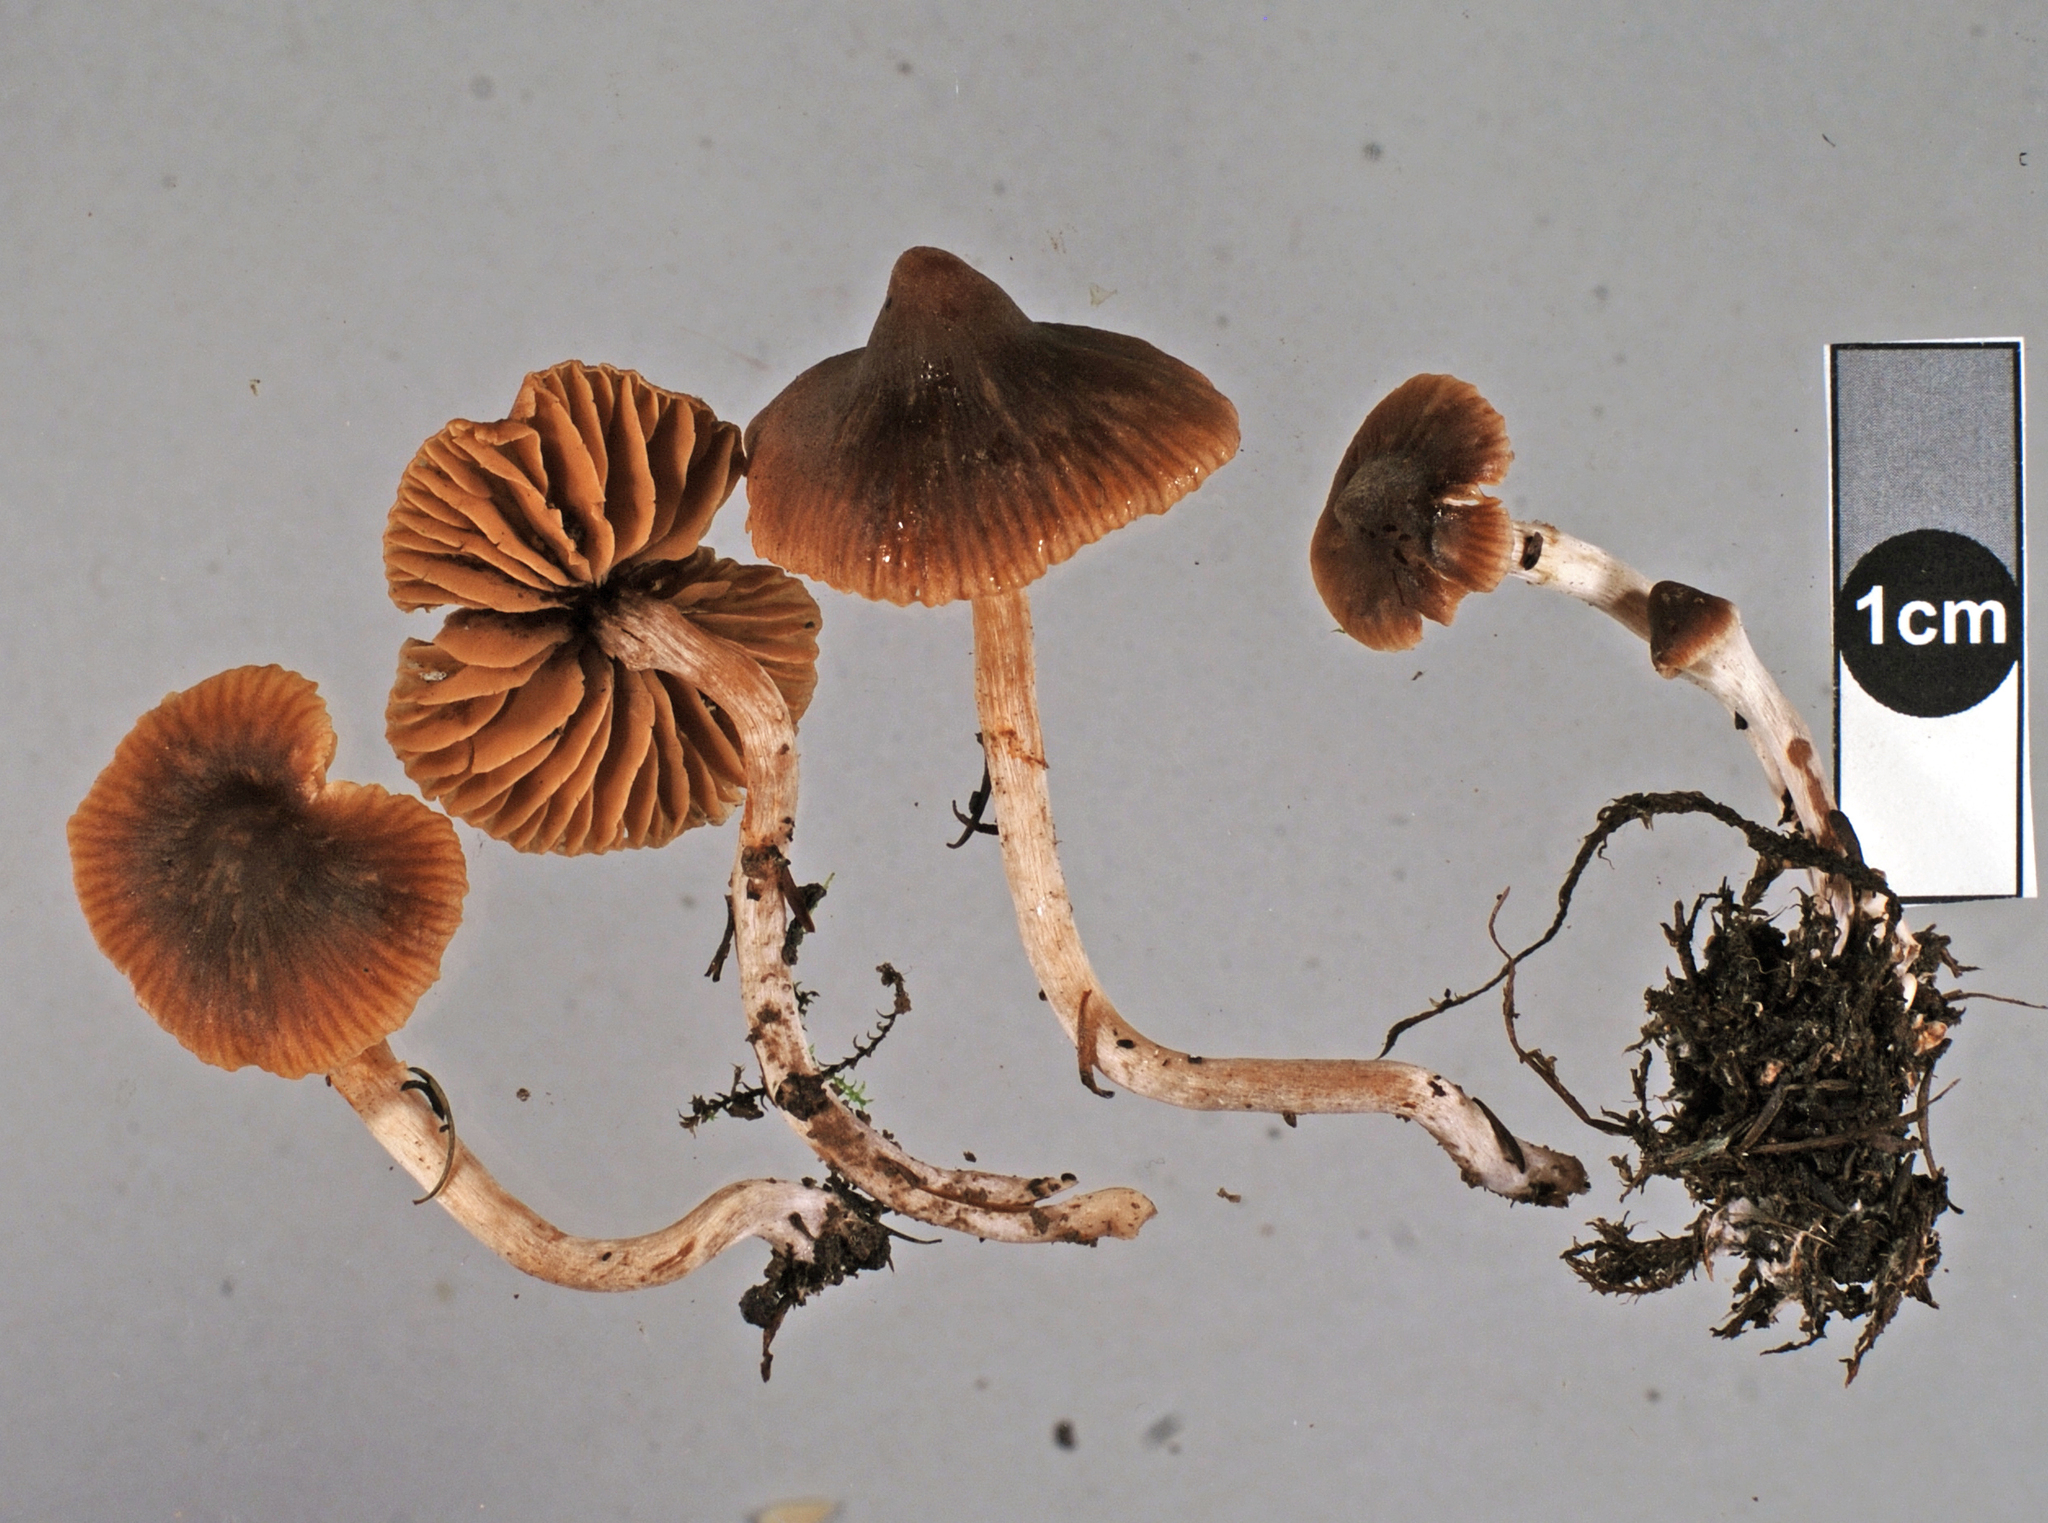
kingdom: Fungi
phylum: Basidiomycota
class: Agaricomycetes
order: Agaricales
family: Cortinariaceae
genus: Cortinarius
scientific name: Cortinarius waiporianus
